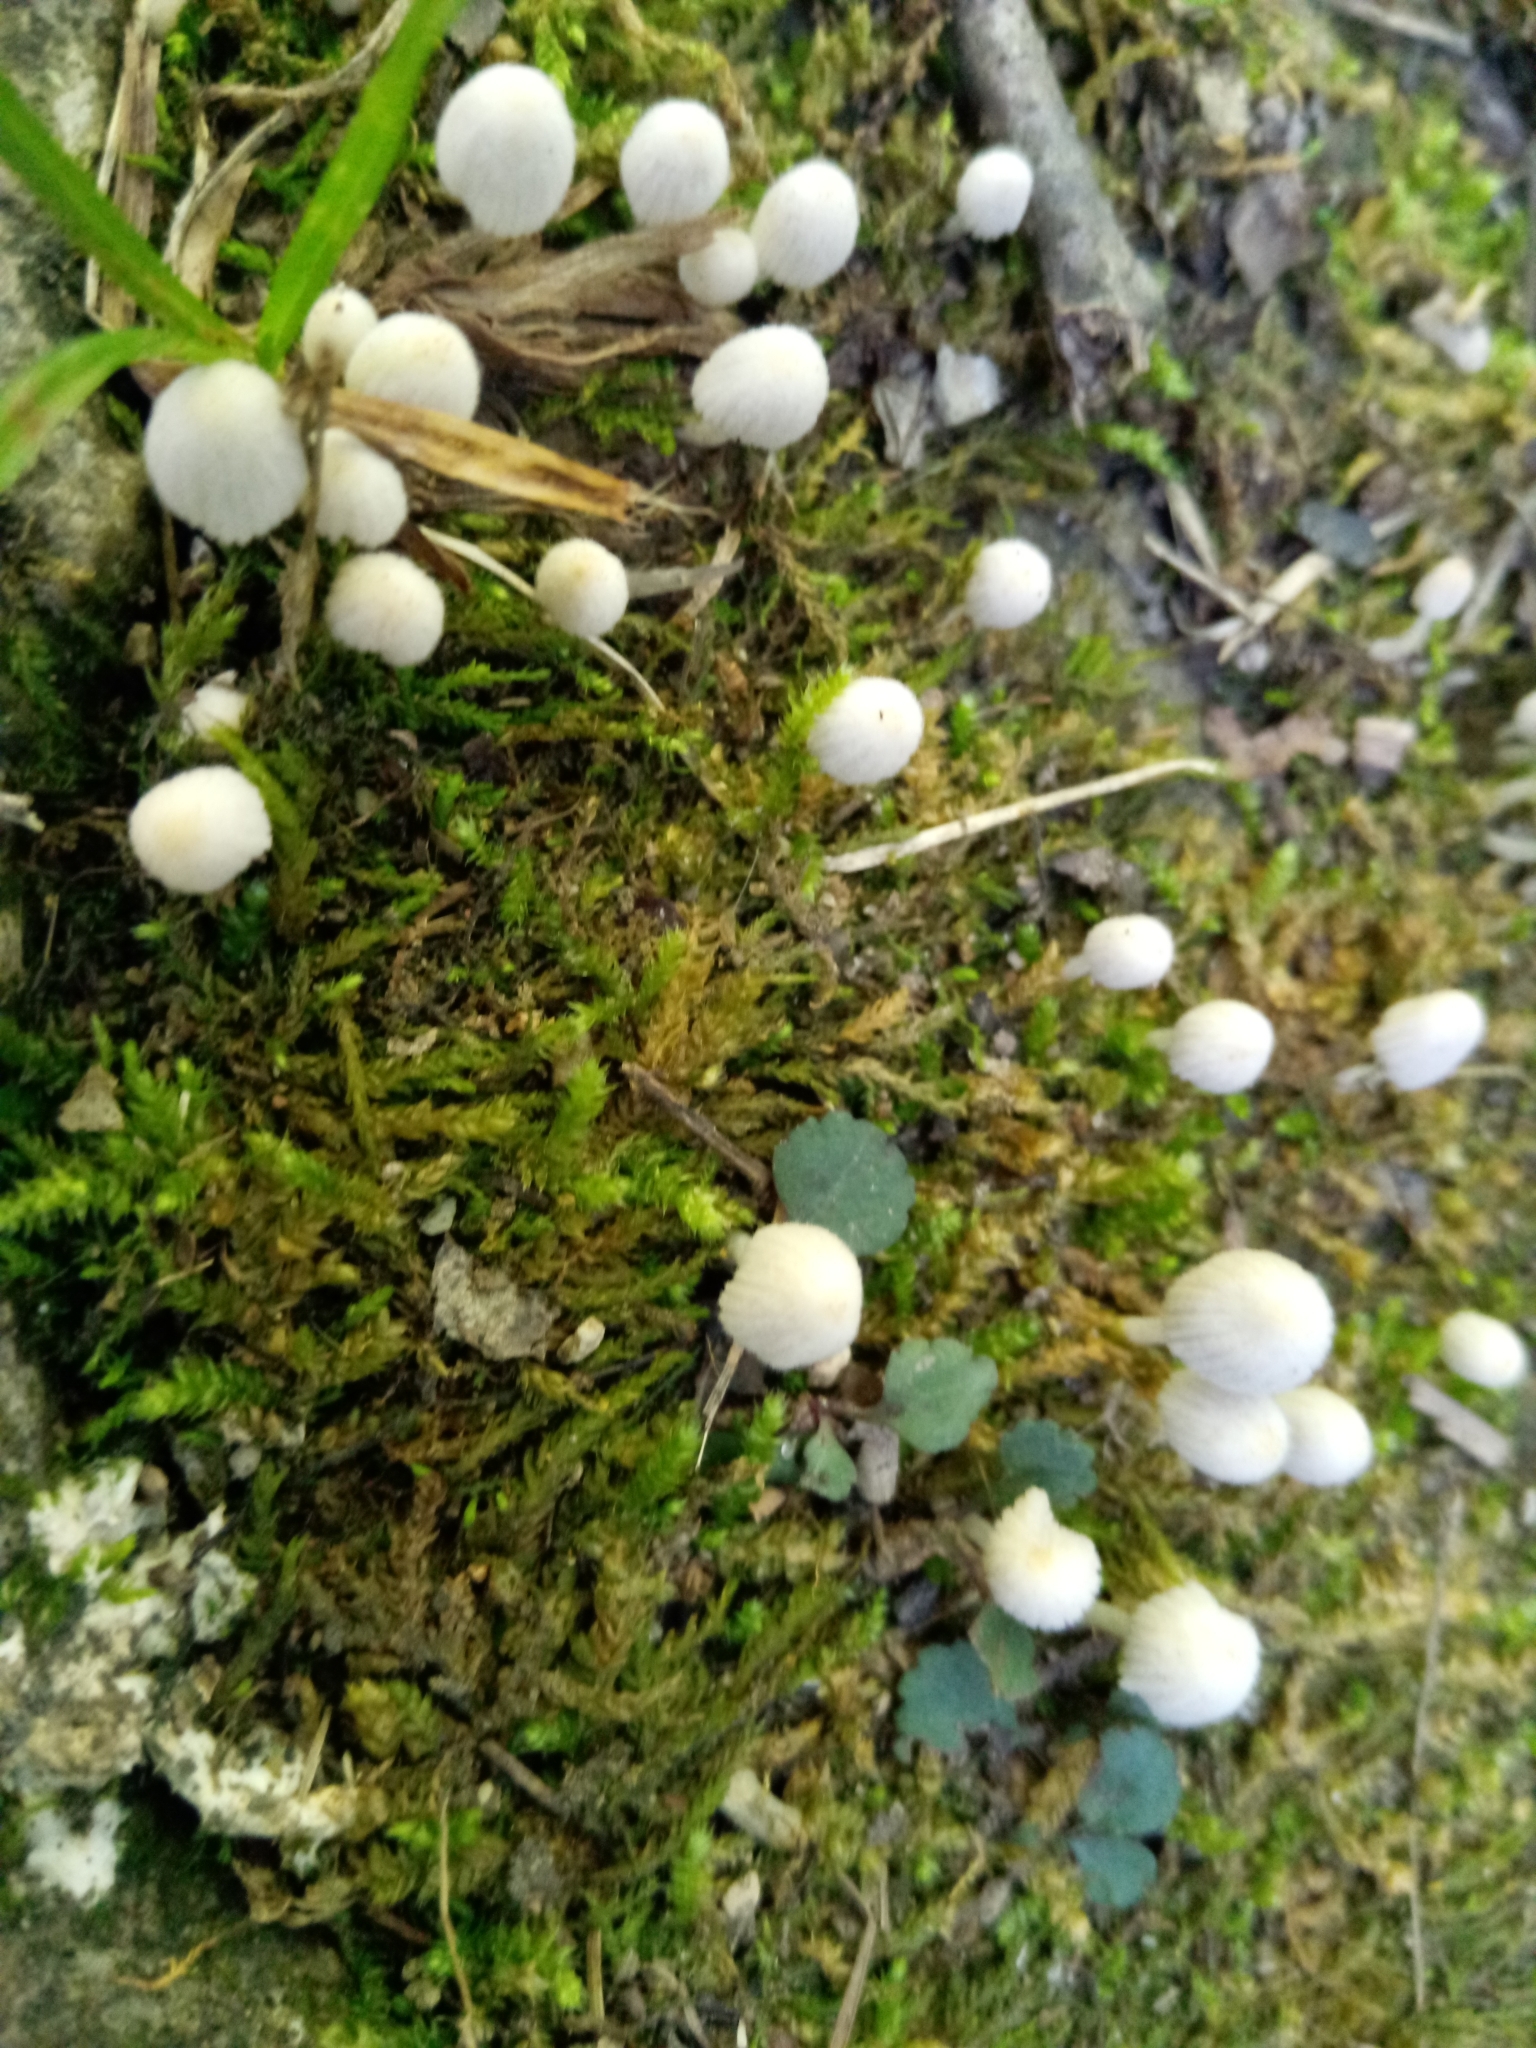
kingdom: Fungi
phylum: Basidiomycota
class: Agaricomycetes
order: Agaricales
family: Psathyrellaceae
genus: Coprinellus
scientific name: Coprinellus disseminatus
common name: Fairies' bonnets
